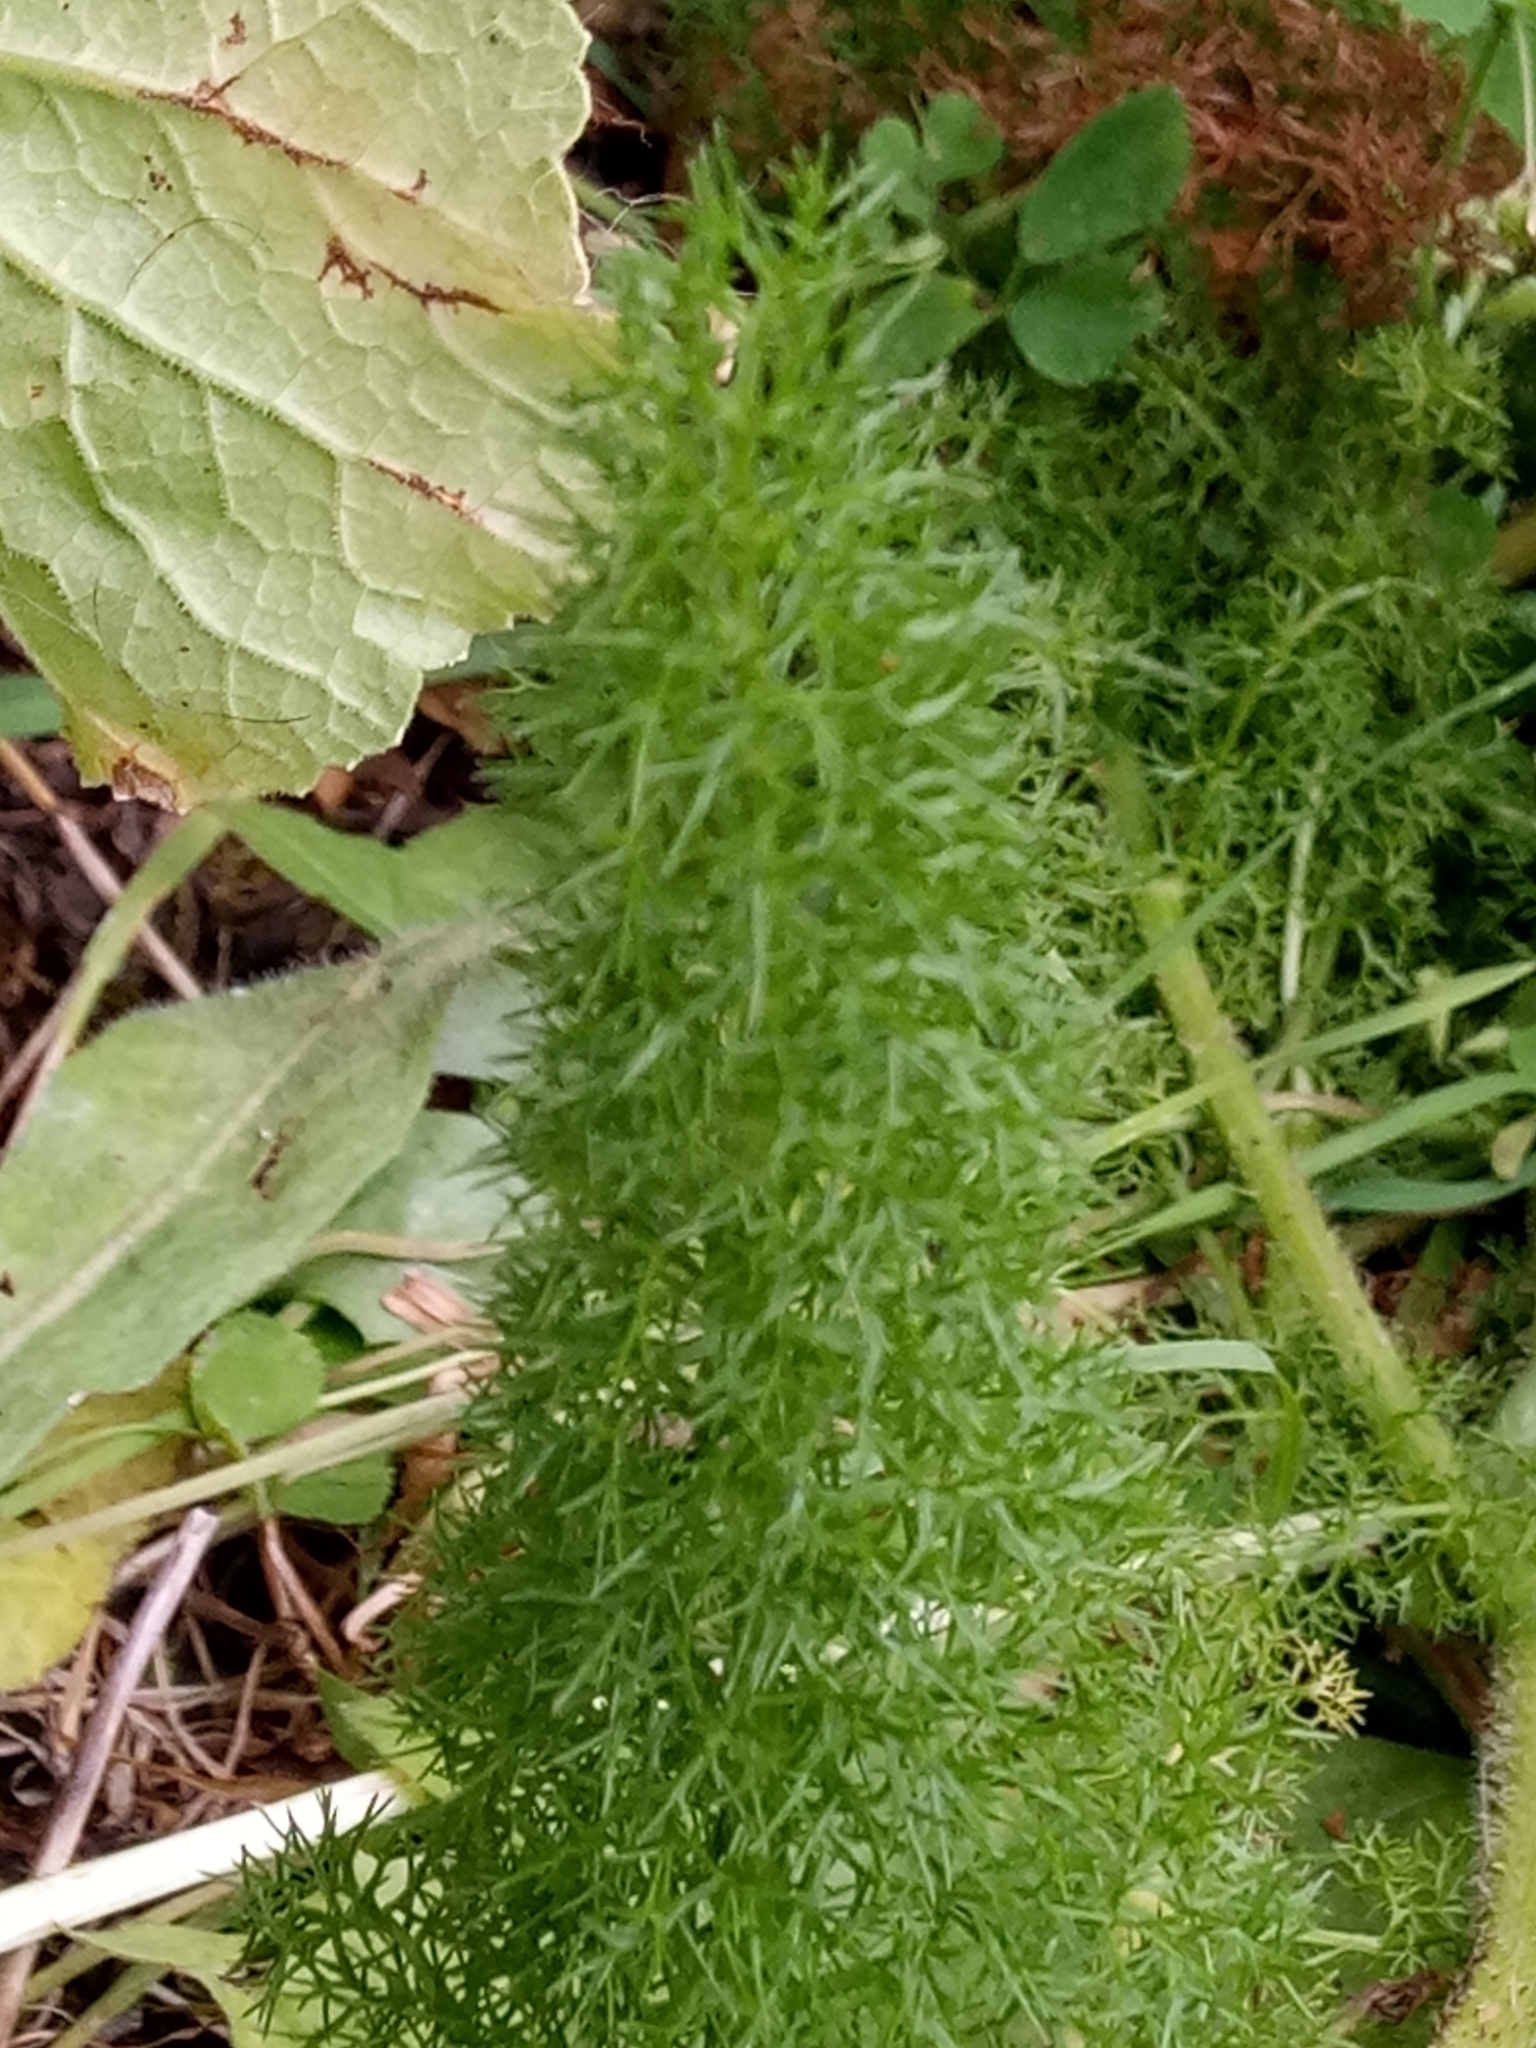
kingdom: Plantae
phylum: Tracheophyta
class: Magnoliopsida
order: Apiales
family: Apiaceae
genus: Thapsia
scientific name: Thapsia meoides
